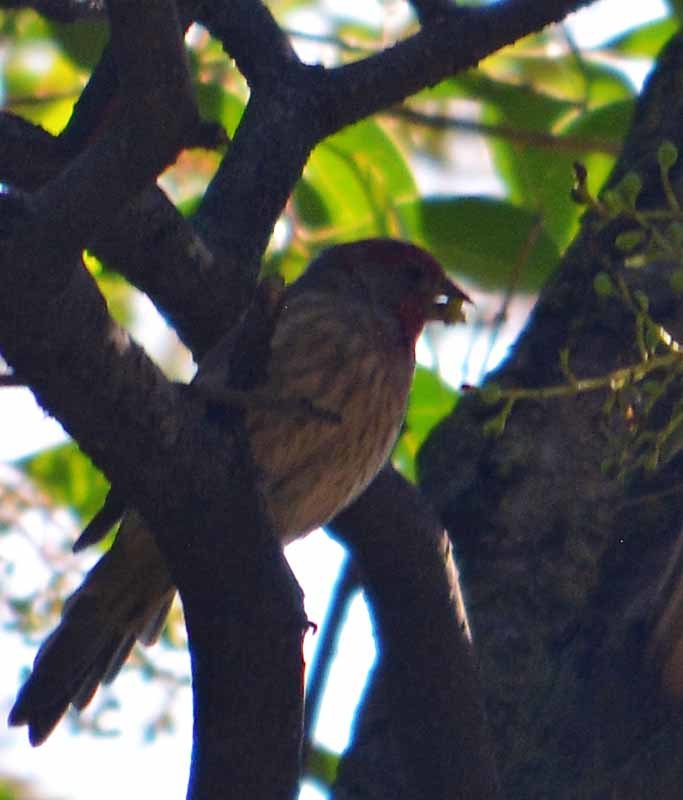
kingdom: Animalia
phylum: Chordata
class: Aves
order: Passeriformes
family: Fringillidae
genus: Haemorhous
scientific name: Haemorhous mexicanus
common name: House finch
